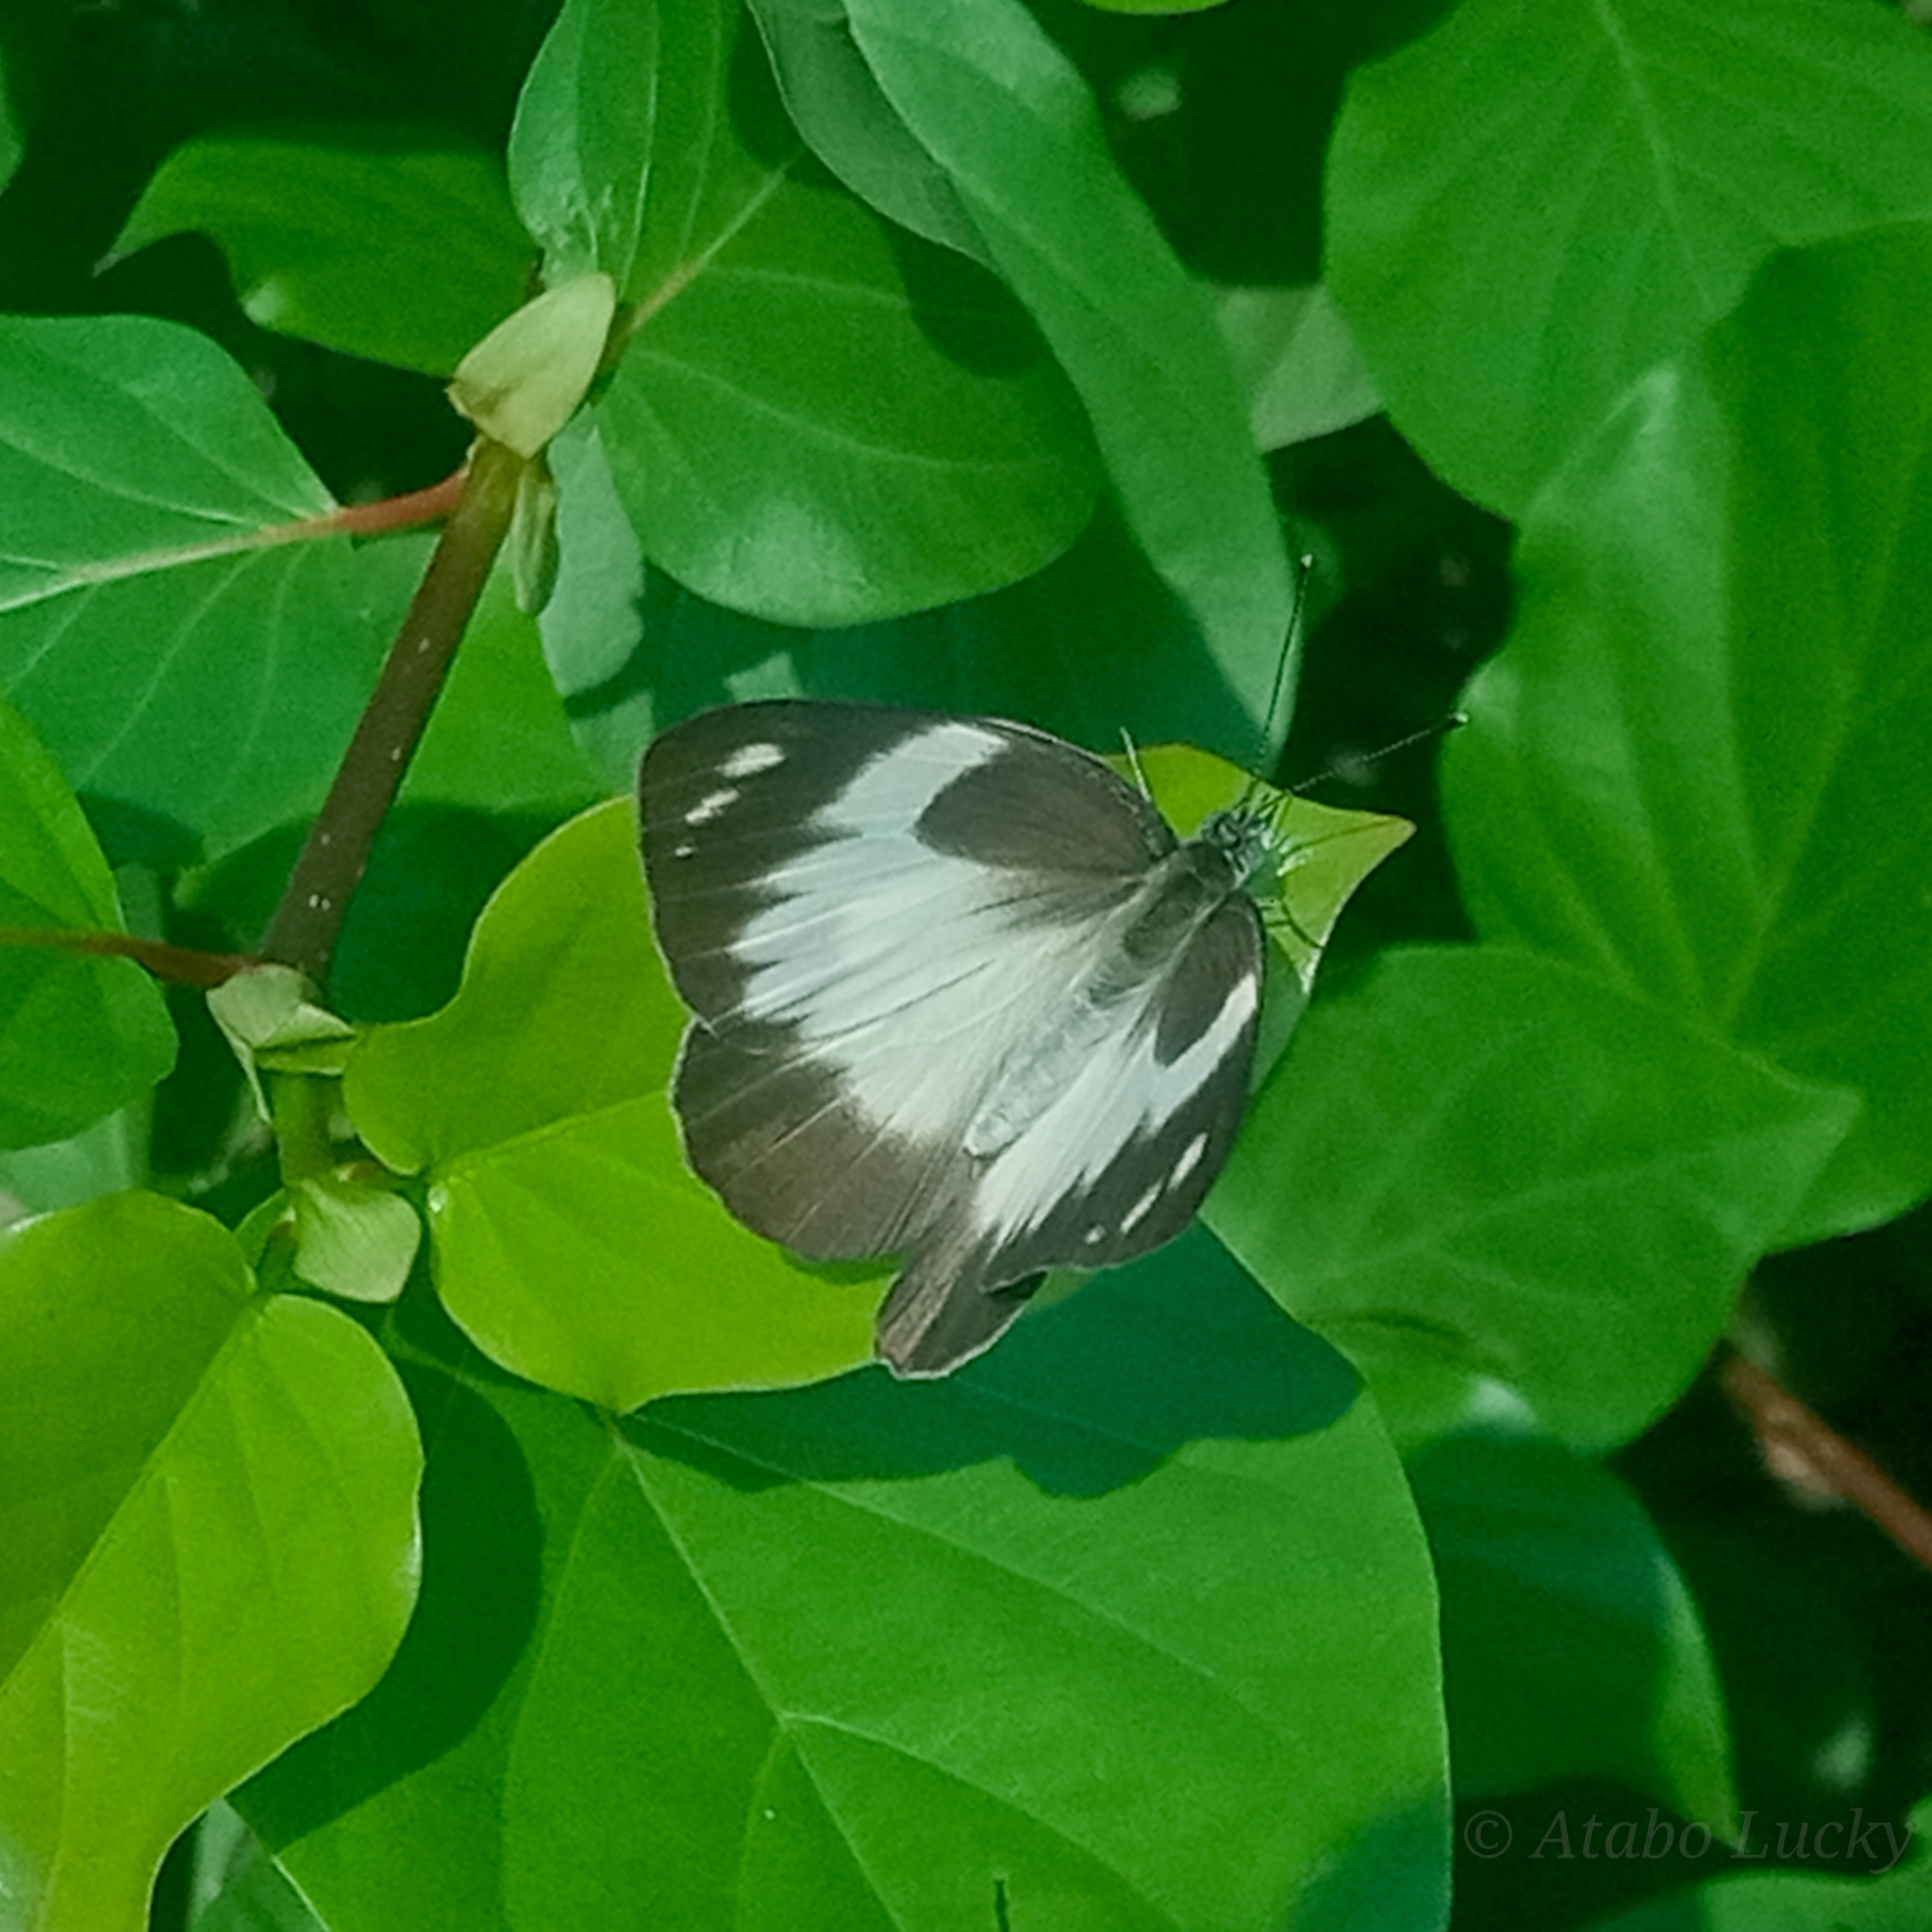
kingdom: Animalia
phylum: Arthropoda
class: Insecta
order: Lepidoptera
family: Pieridae
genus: Glutophrissa
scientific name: Glutophrissa epaphia
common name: African albatross
